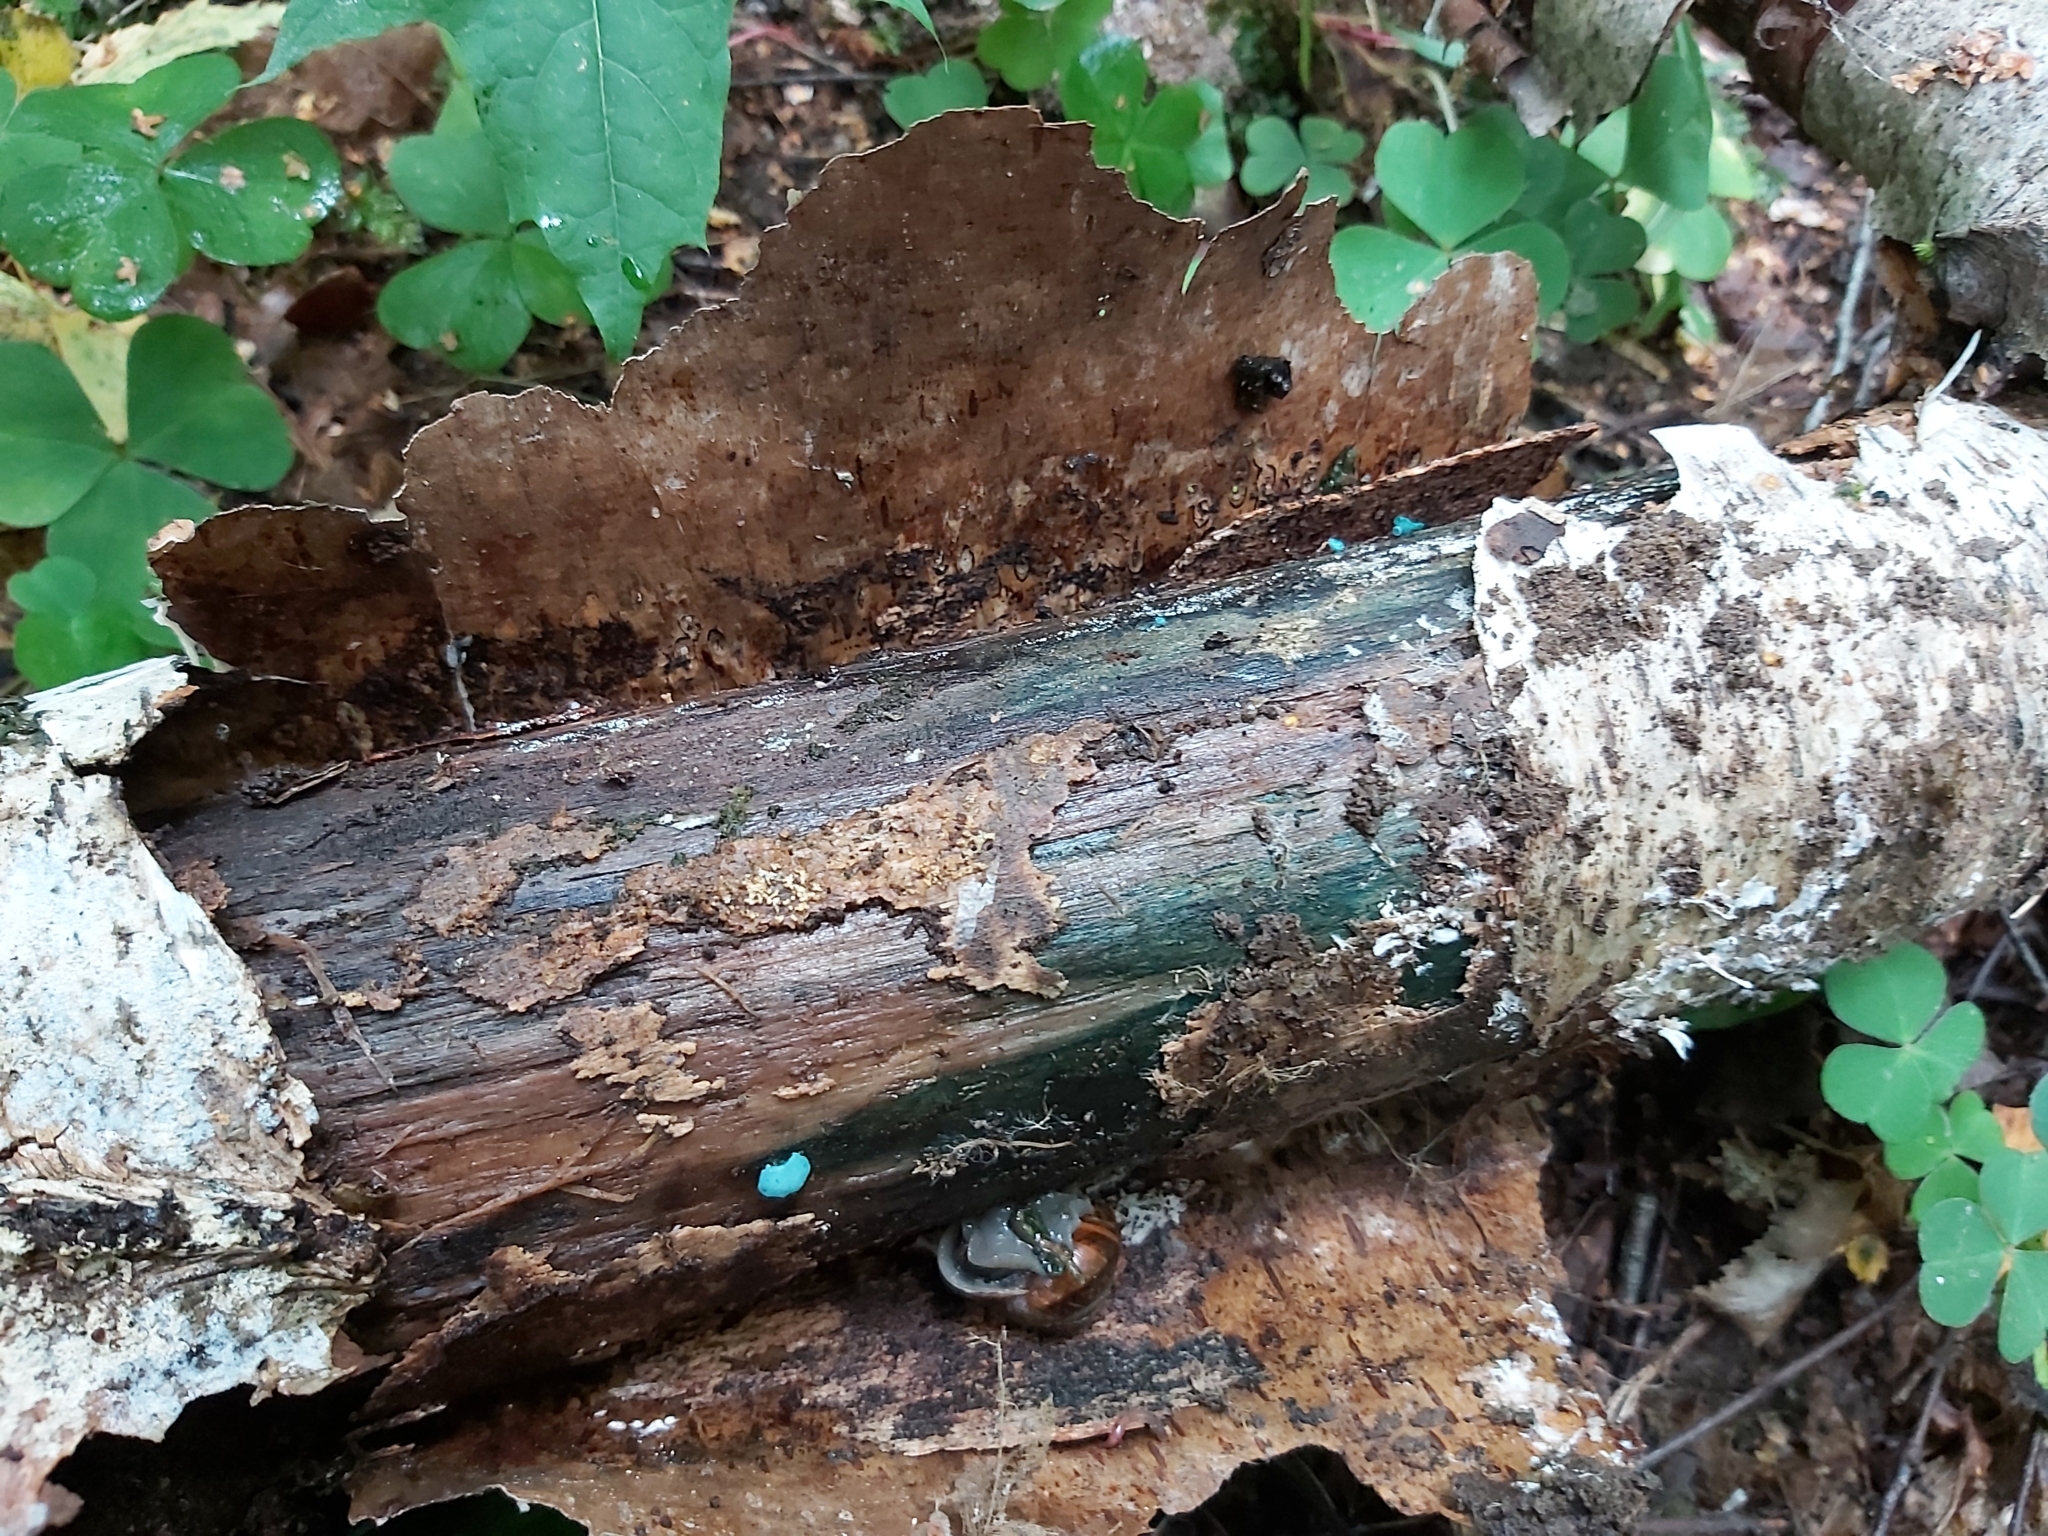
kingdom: Fungi
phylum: Ascomycota
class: Leotiomycetes
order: Helotiales
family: Chlorociboriaceae
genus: Chlorociboria
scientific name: Chlorociboria
